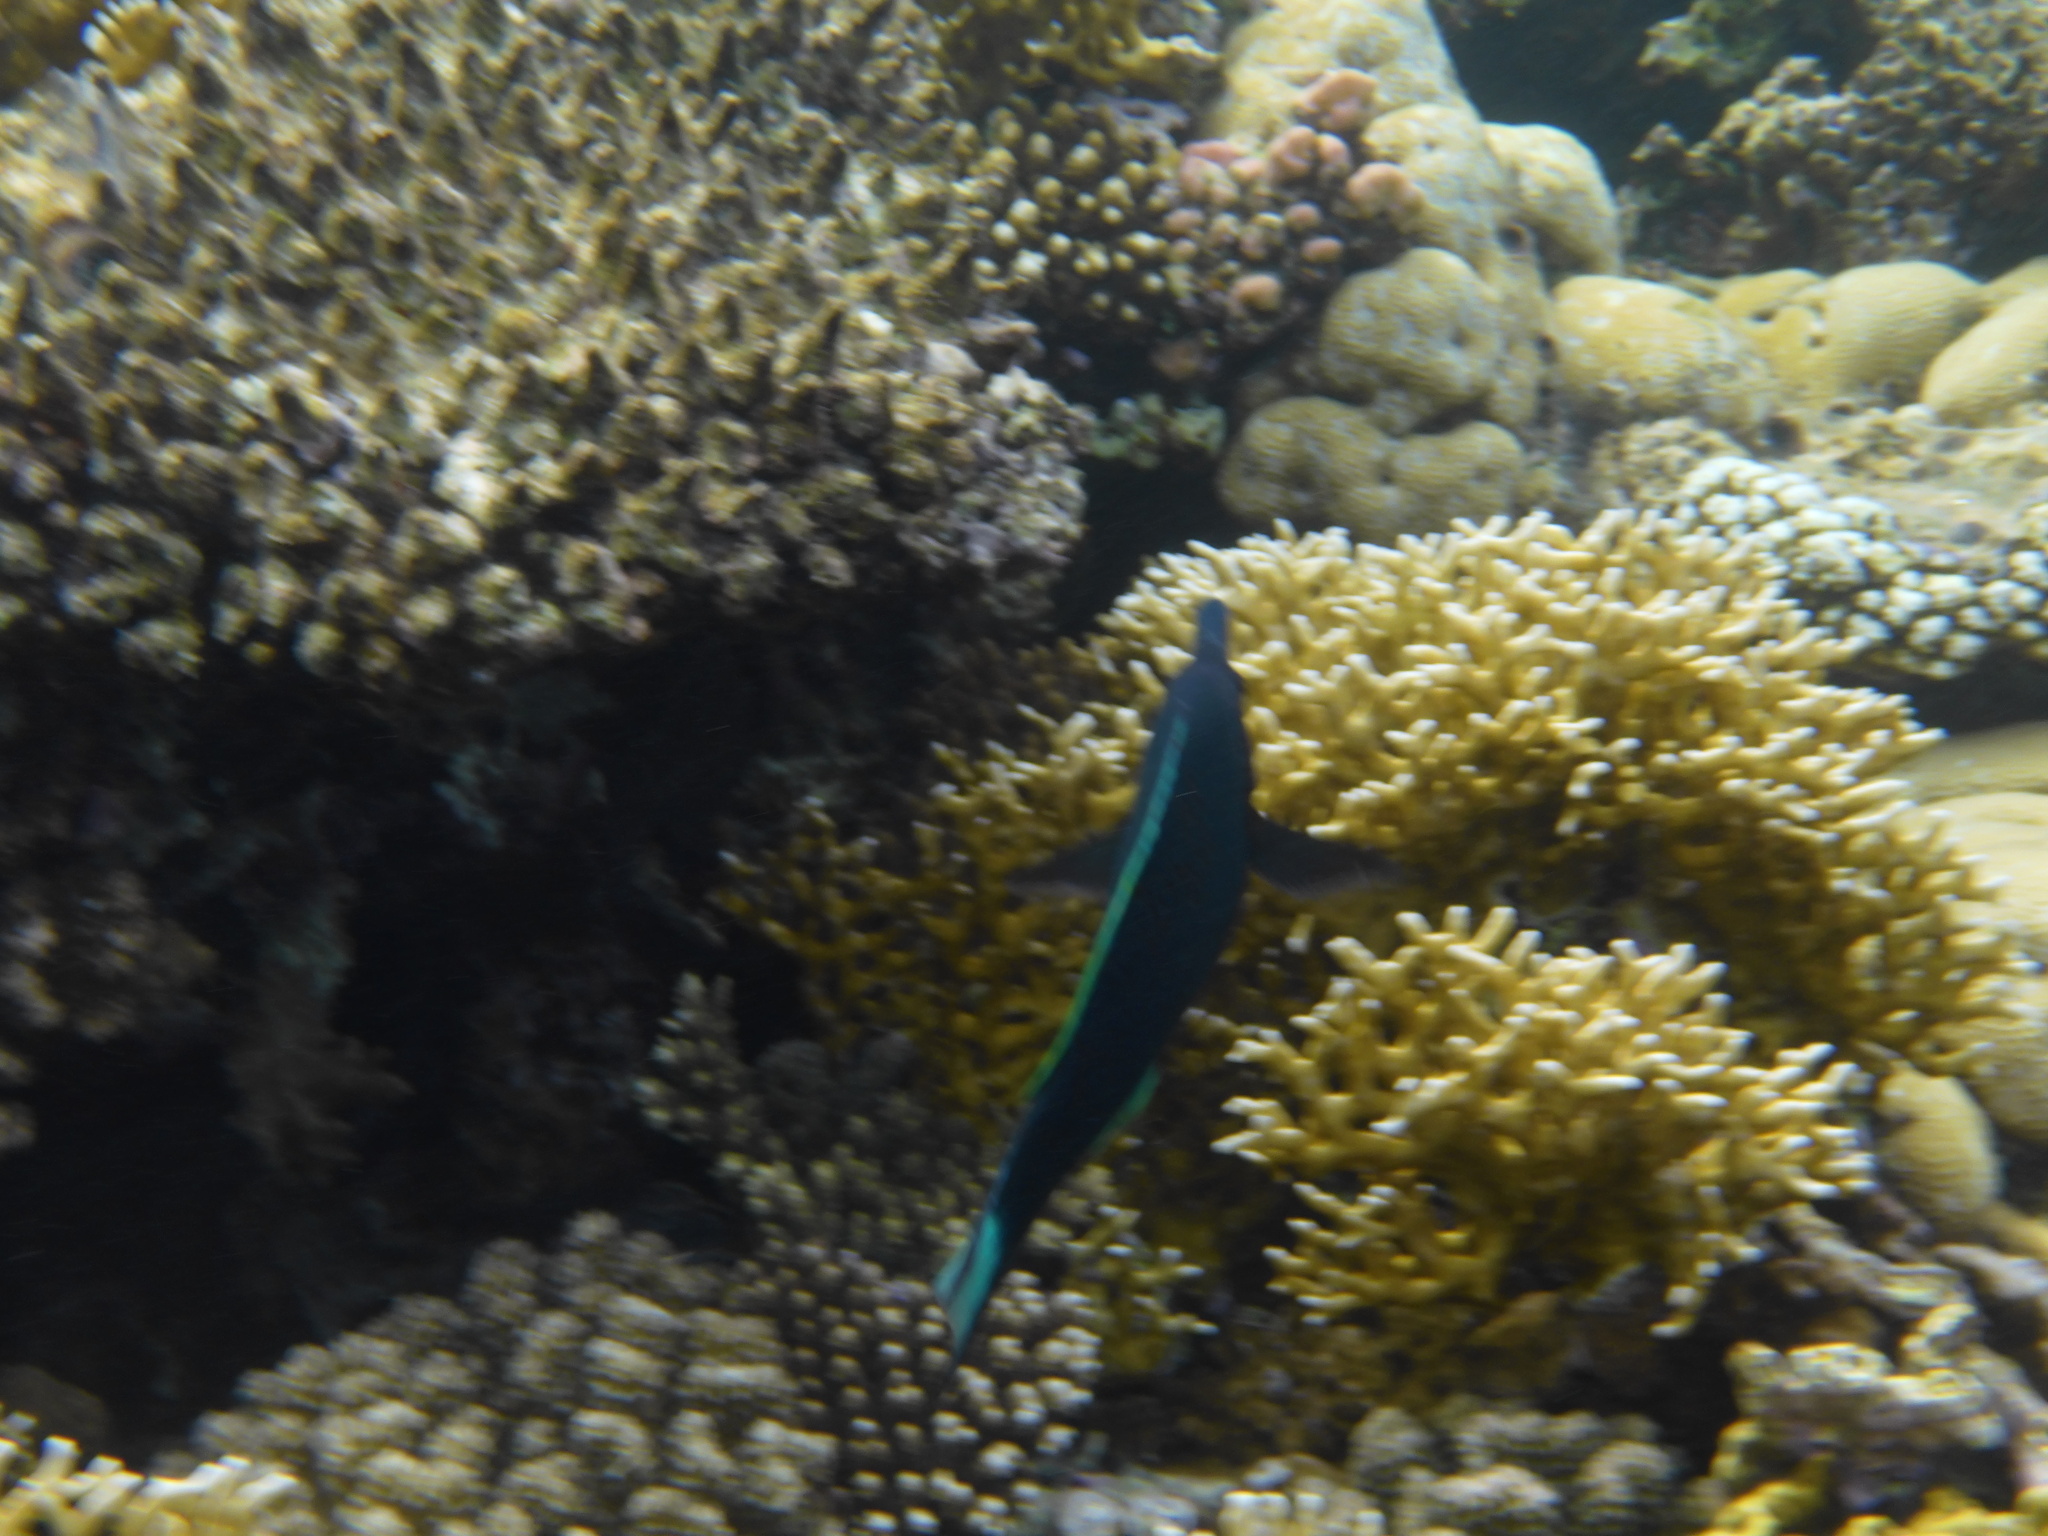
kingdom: Animalia
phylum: Chordata
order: Perciformes
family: Labridae
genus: Gomphosus
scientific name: Gomphosus klunzingeri
